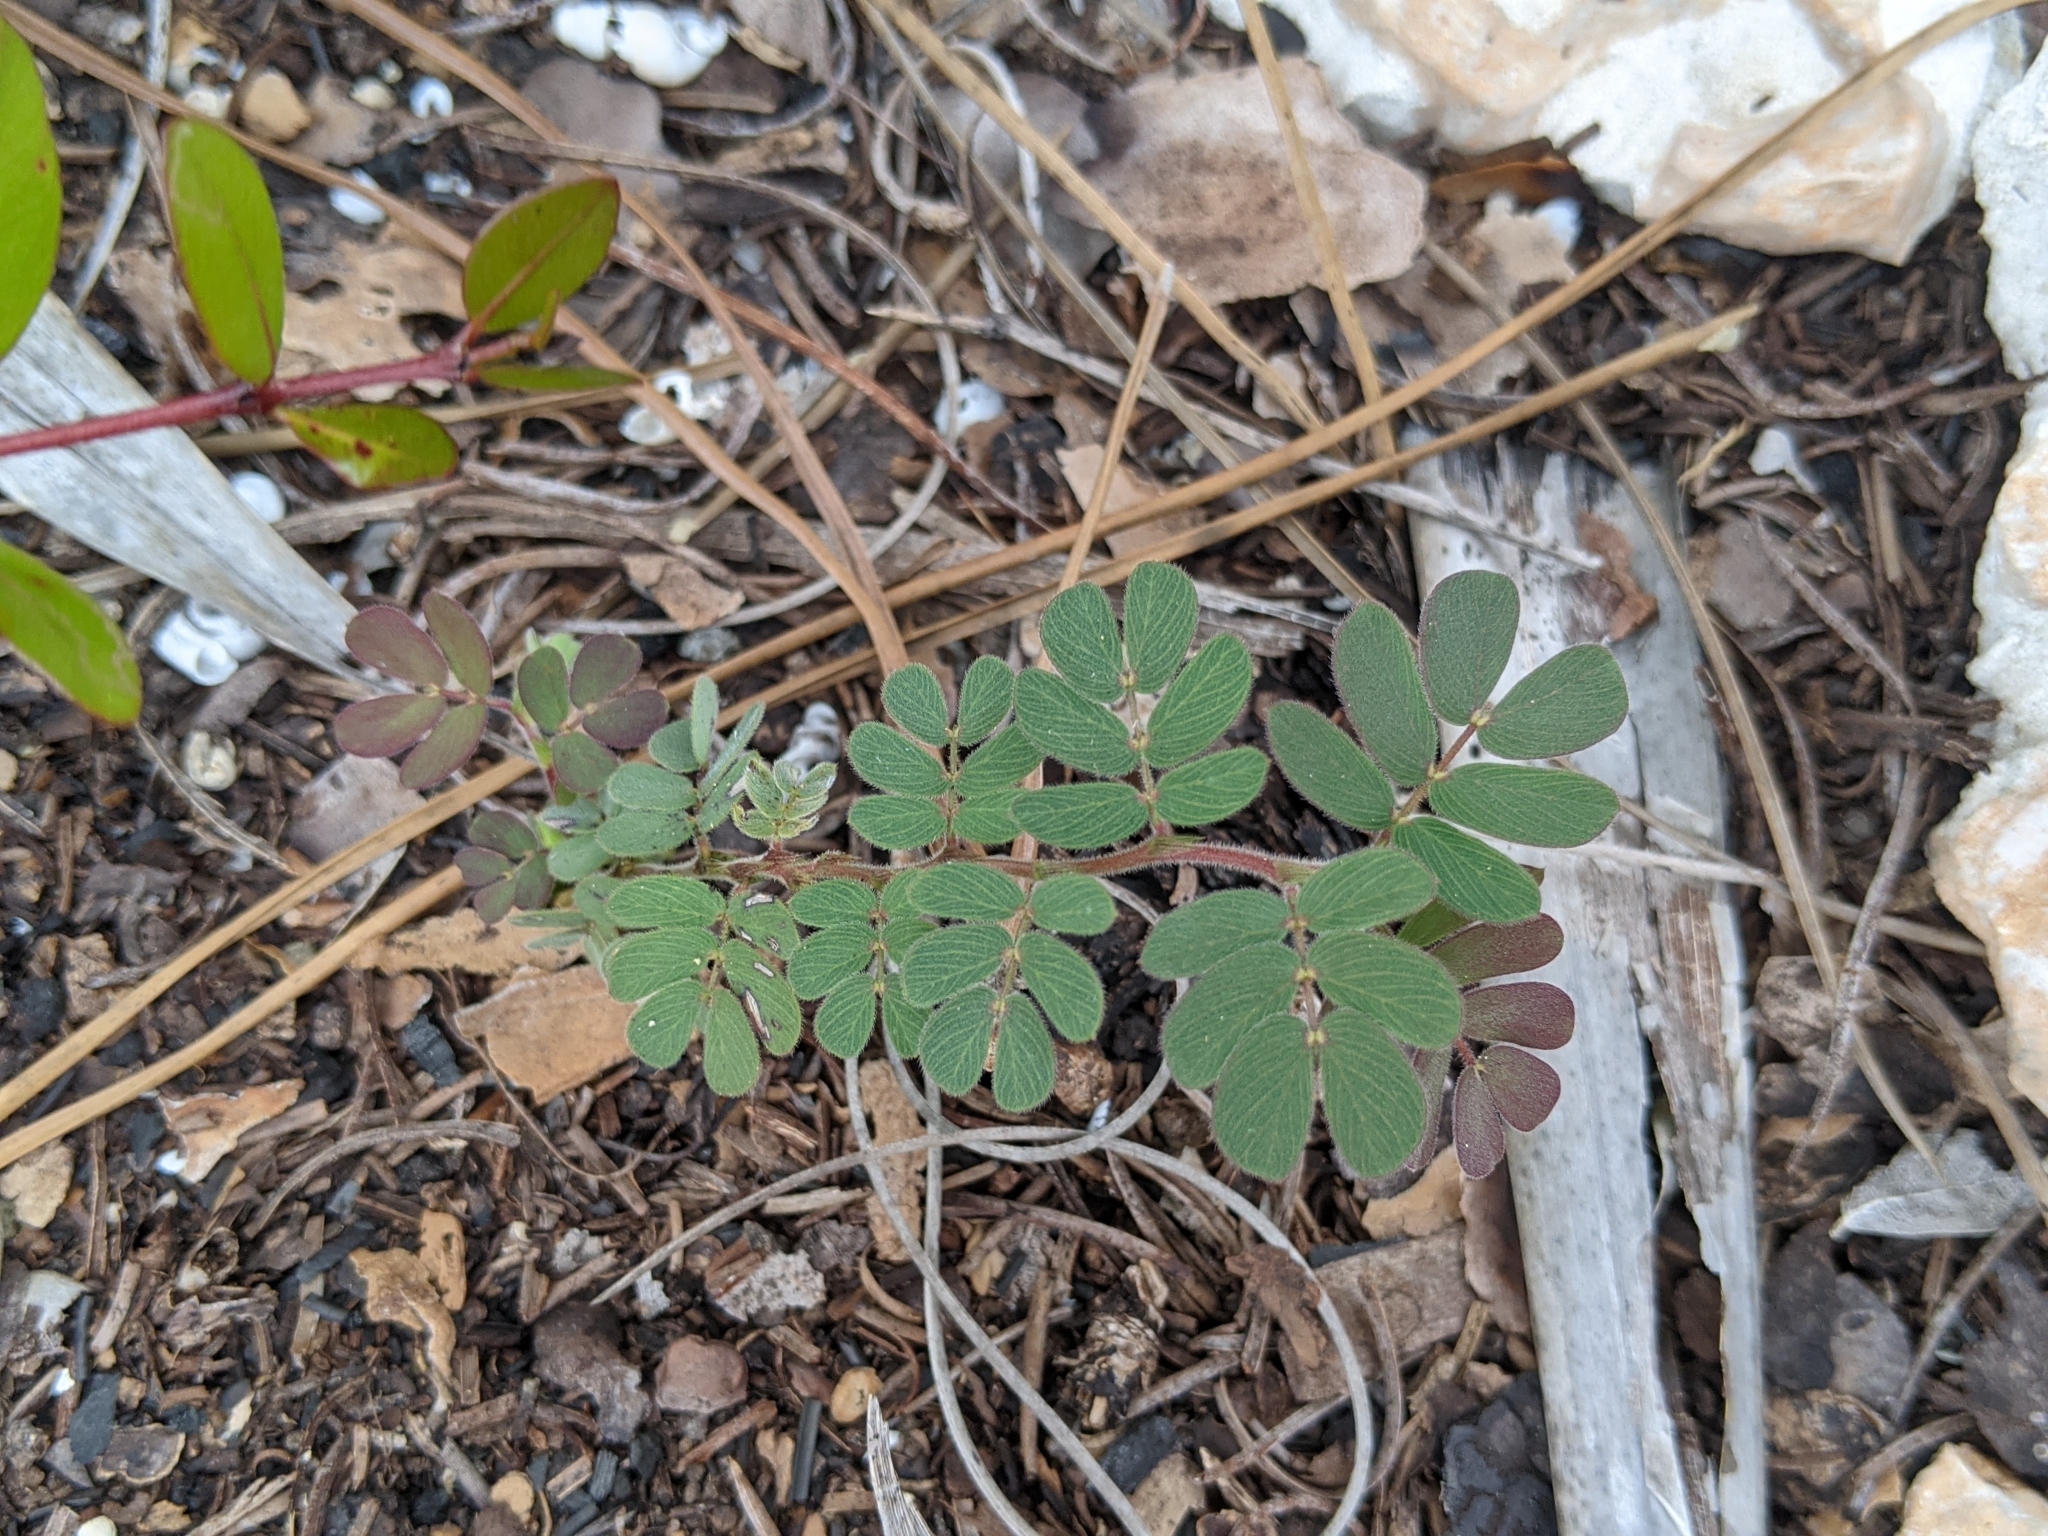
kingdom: Plantae
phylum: Tracheophyta
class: Magnoliopsida
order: Fabales
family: Fabaceae
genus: Chamaecrista
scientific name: Chamaecrista lineata
